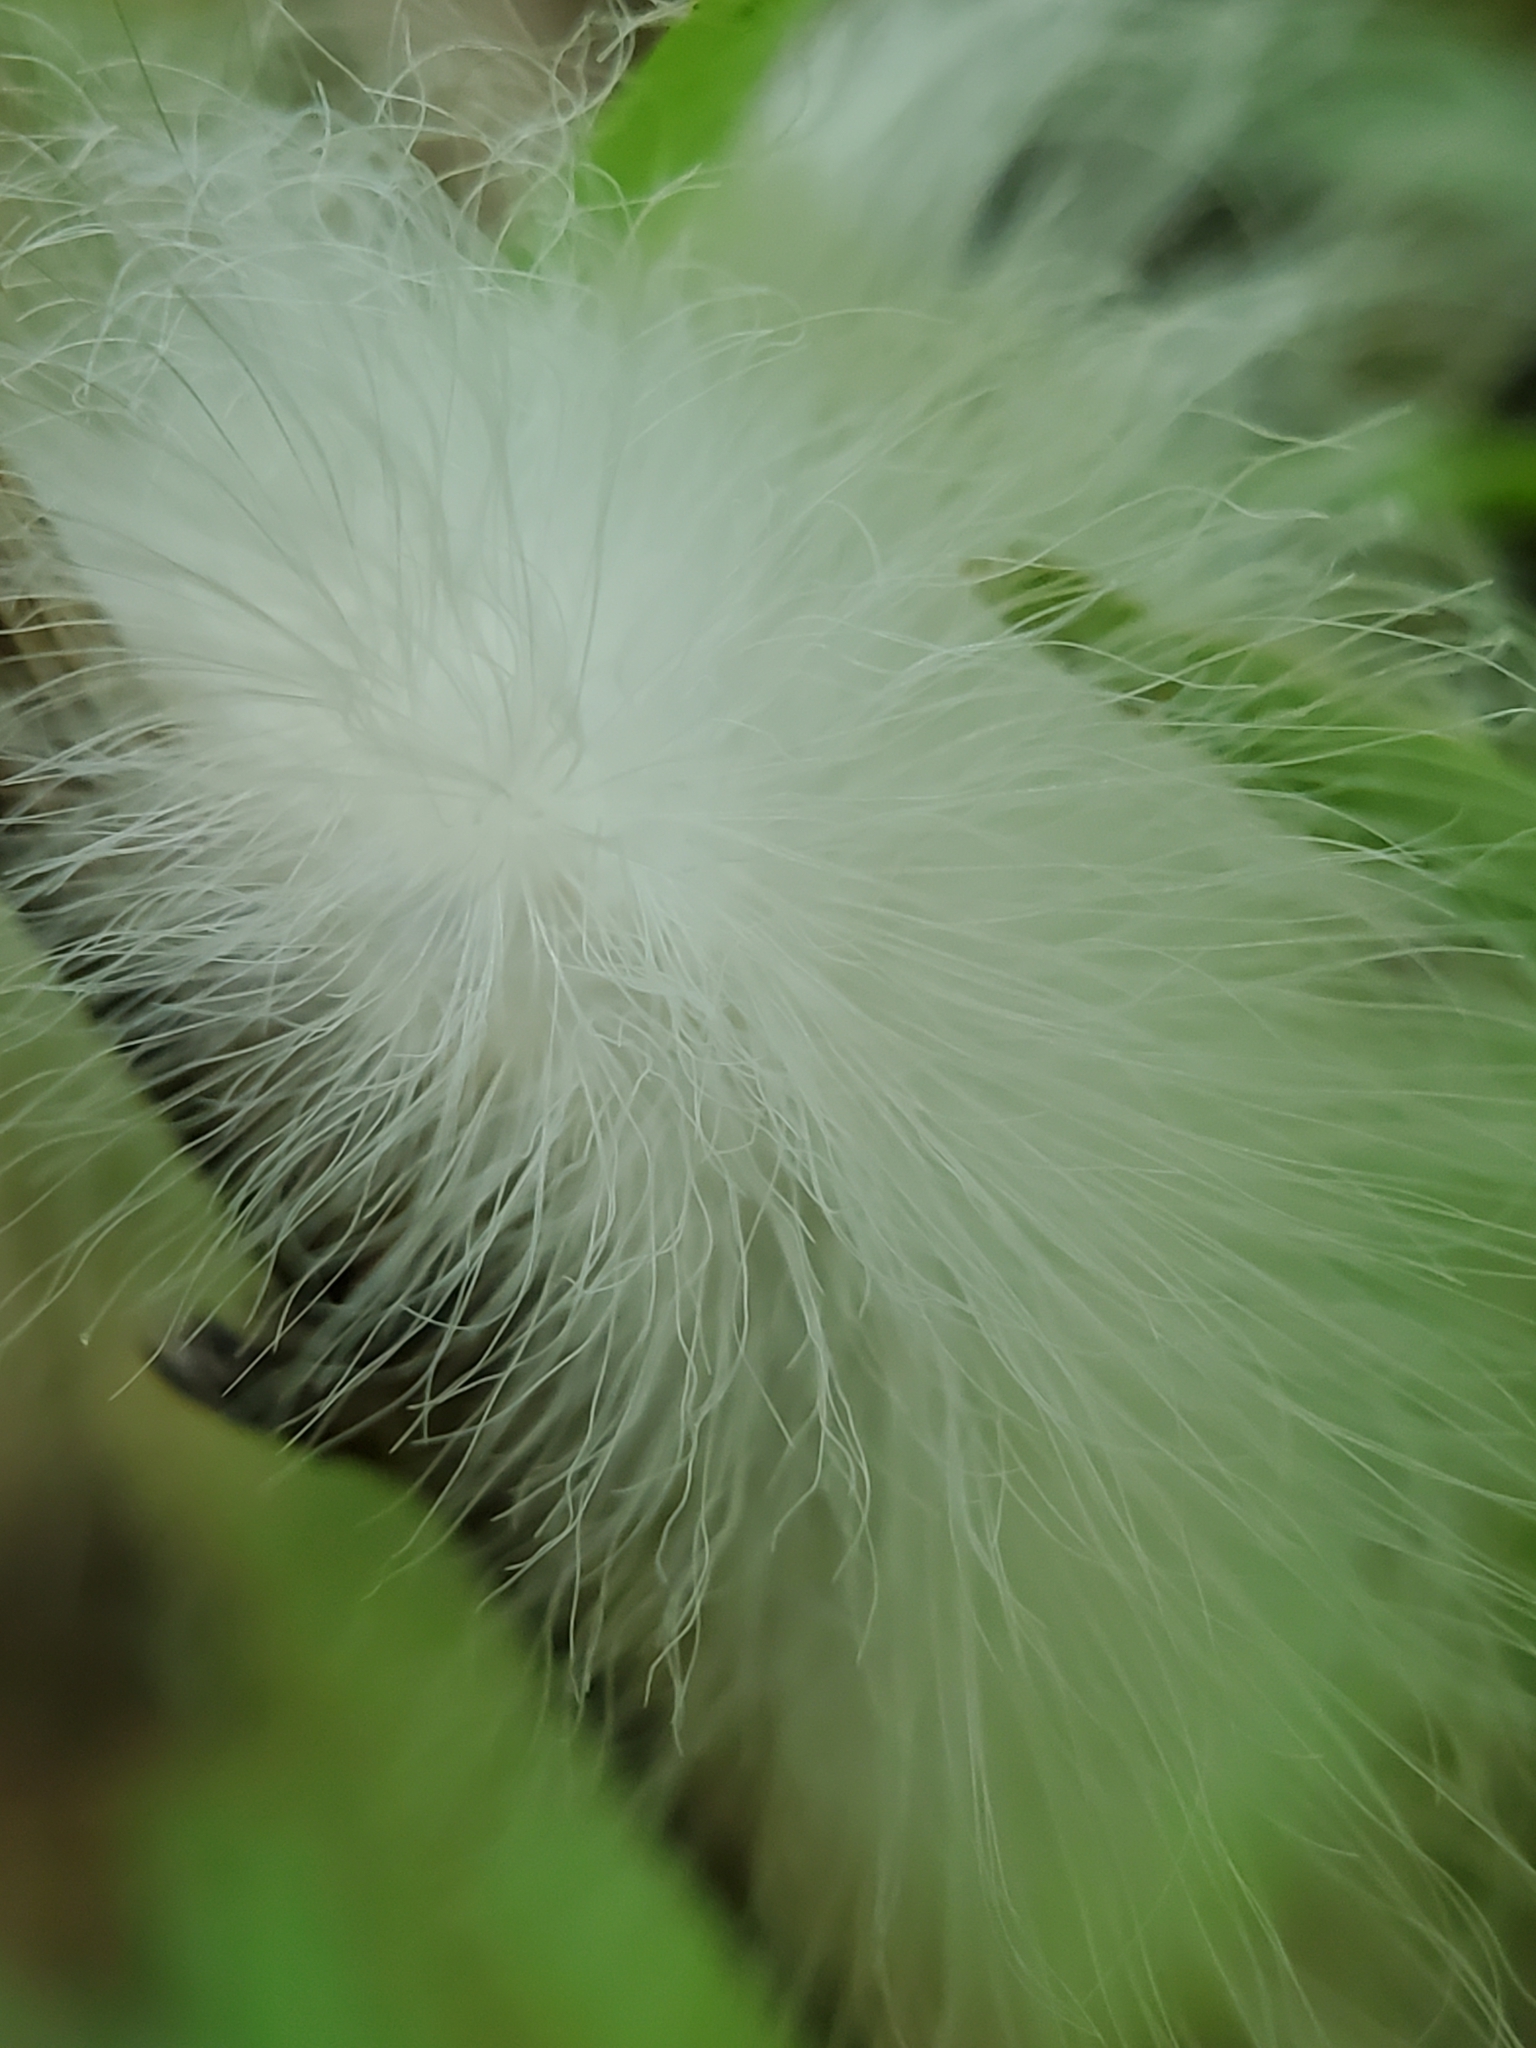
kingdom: Animalia
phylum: Arthropoda
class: Insecta
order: Lepidoptera
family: Megalopygidae
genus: Megalopyge
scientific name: Megalopyge crispata
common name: Black-waved flannel moth
